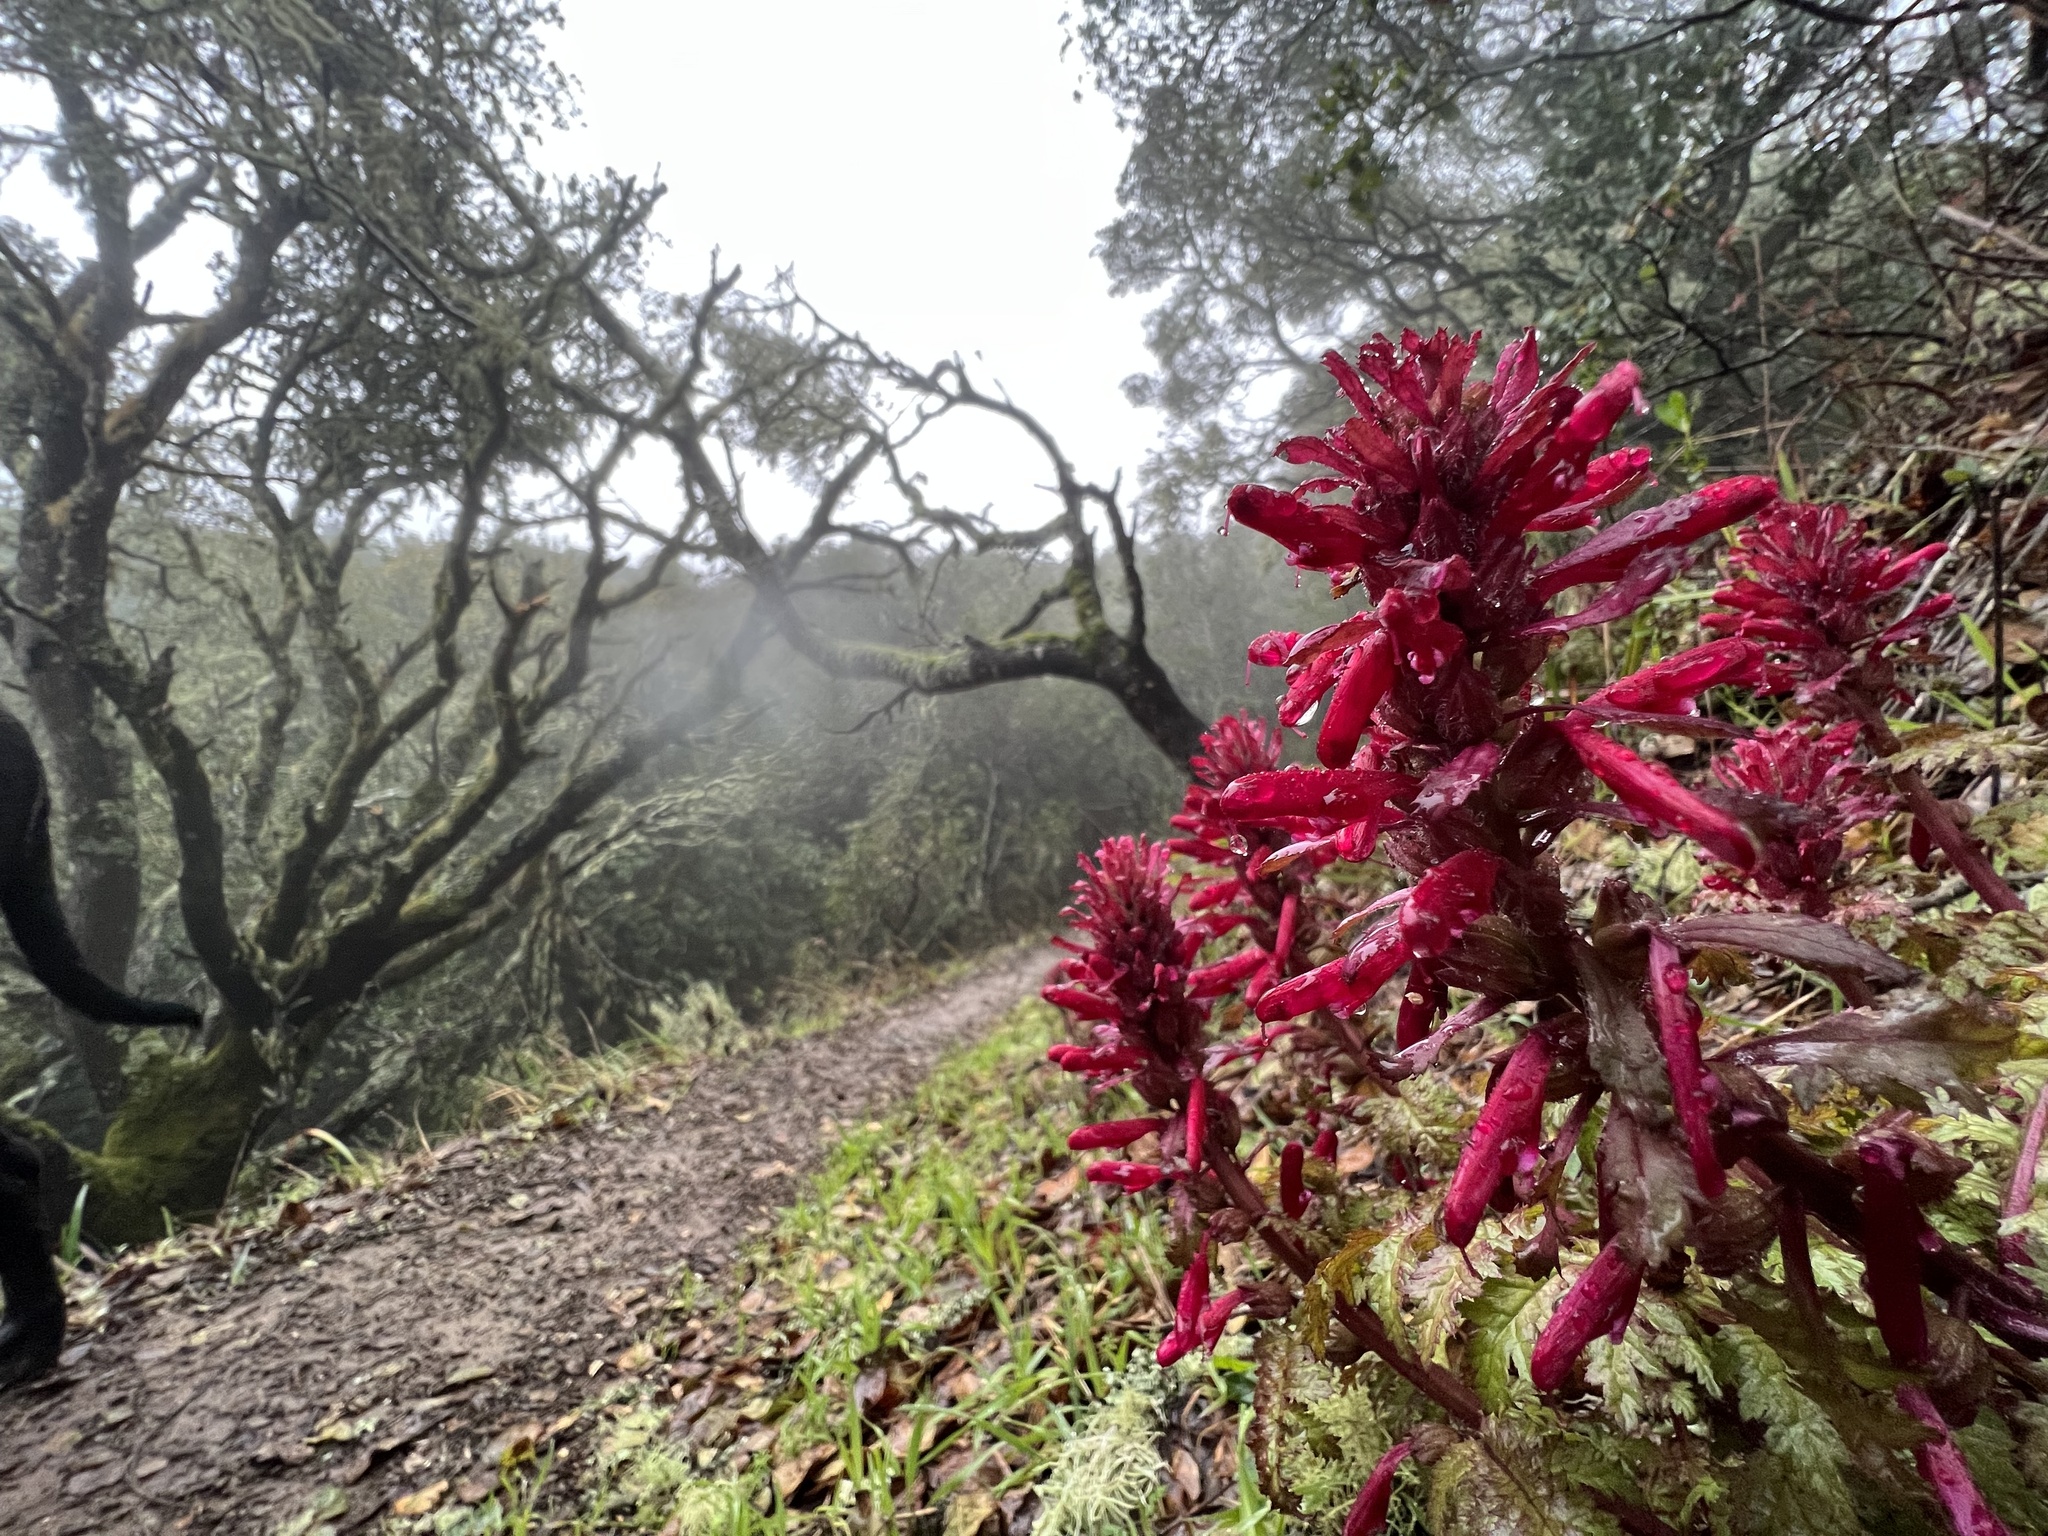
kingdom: Plantae
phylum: Tracheophyta
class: Magnoliopsida
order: Lamiales
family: Orobanchaceae
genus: Pedicularis
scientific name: Pedicularis densiflora
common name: Indian warrior
